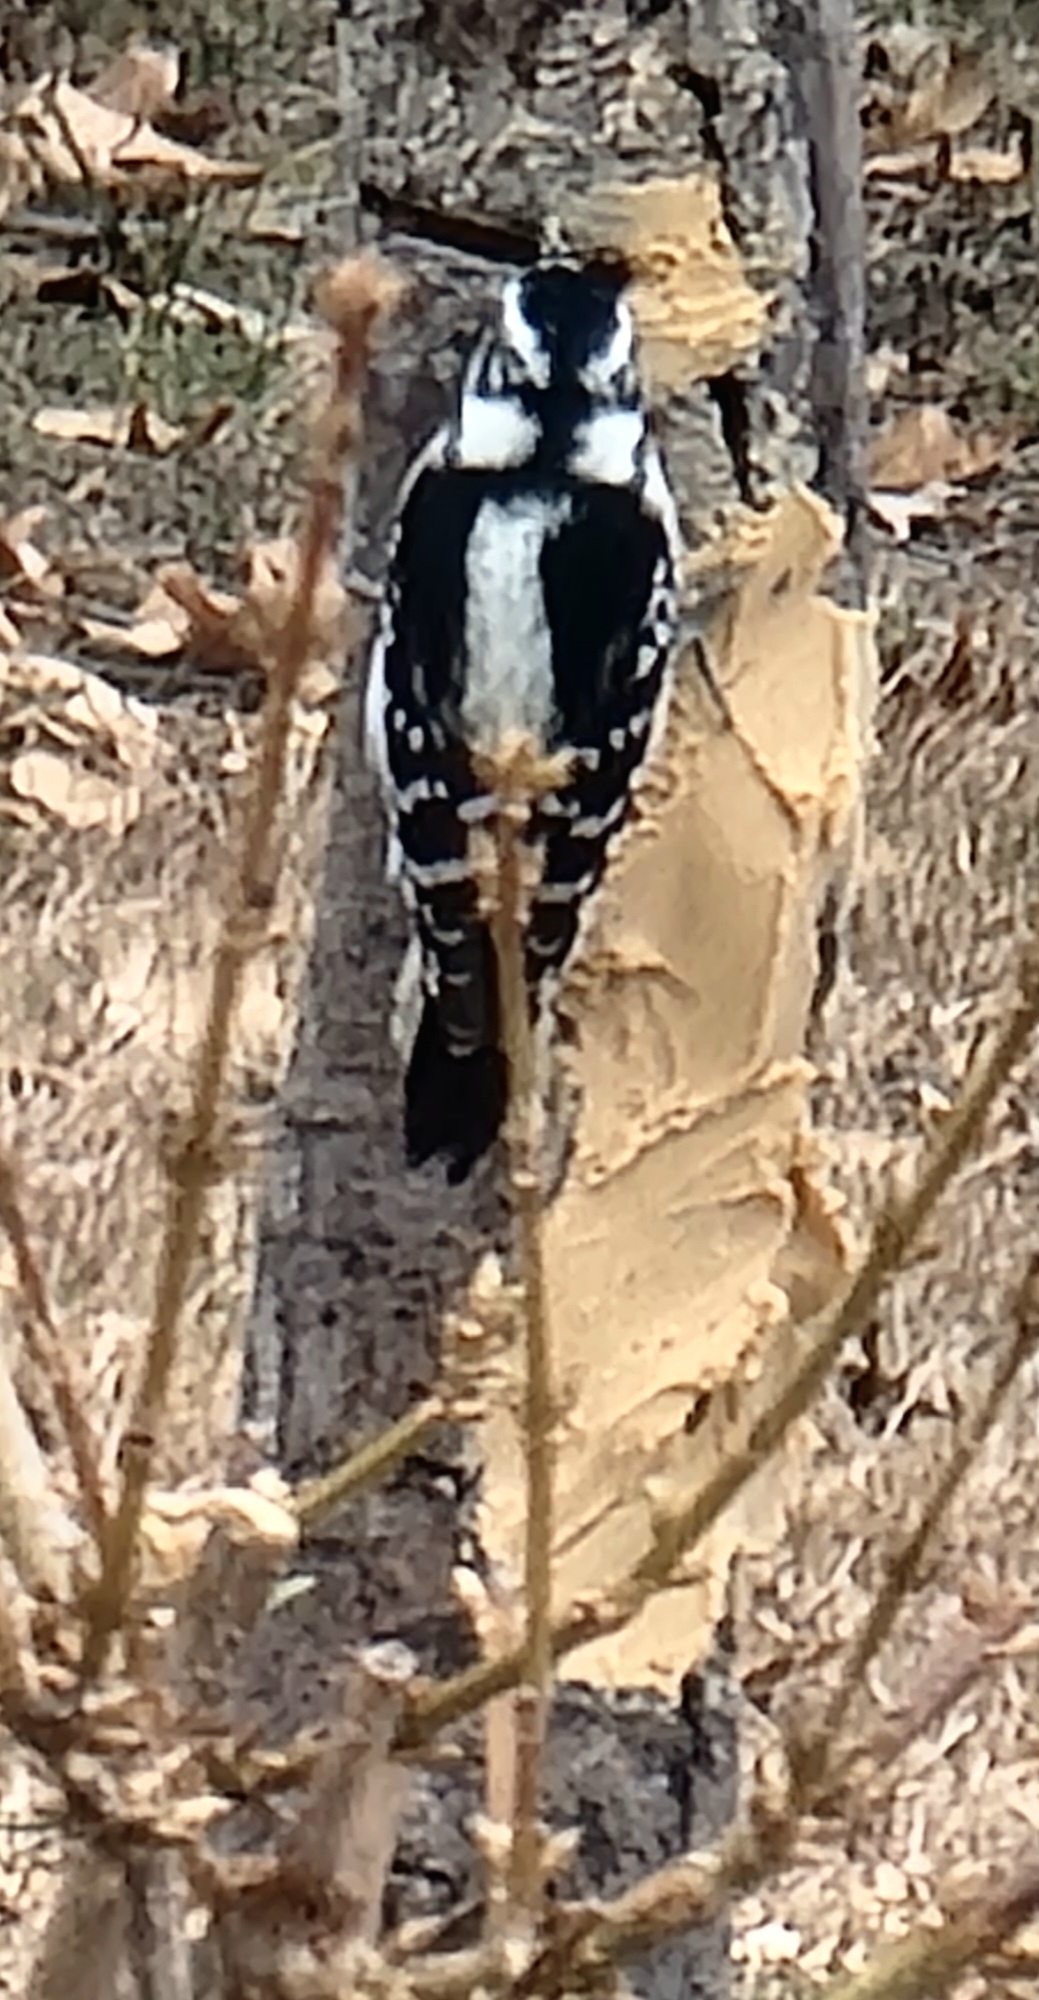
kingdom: Animalia
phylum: Chordata
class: Aves
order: Piciformes
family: Picidae
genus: Dryobates
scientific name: Dryobates pubescens
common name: Downy woodpecker
